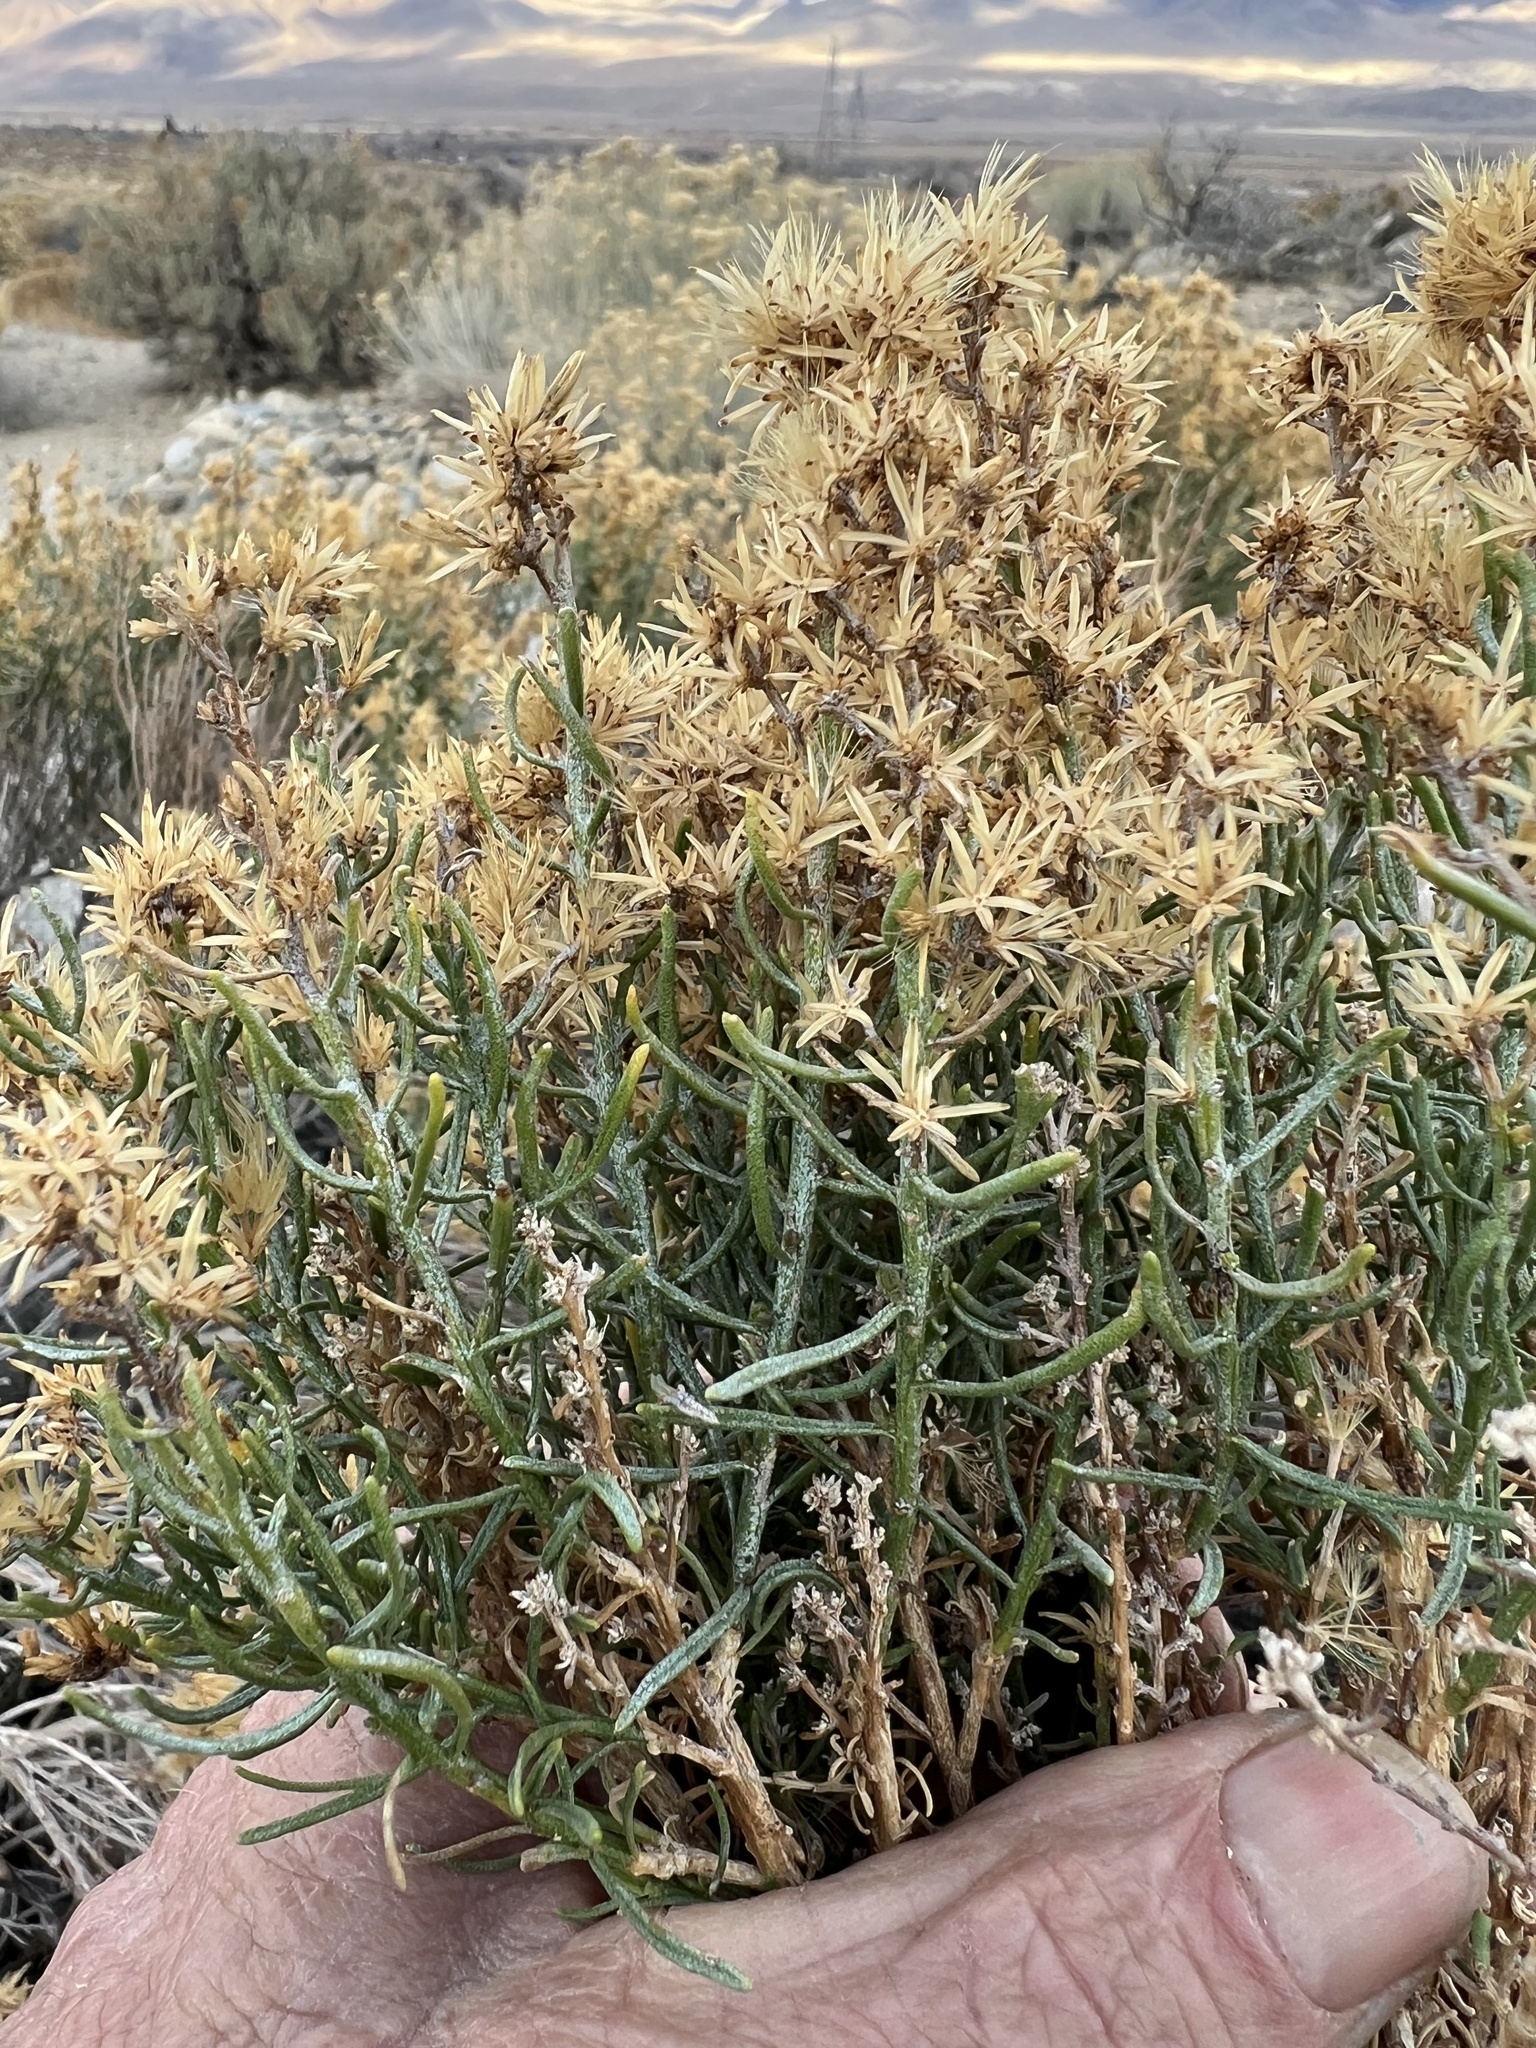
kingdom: Plantae
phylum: Tracheophyta
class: Magnoliopsida
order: Asterales
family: Asteraceae
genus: Ericameria
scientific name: Ericameria teretifolia
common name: Round-leaf rabbitbrush
